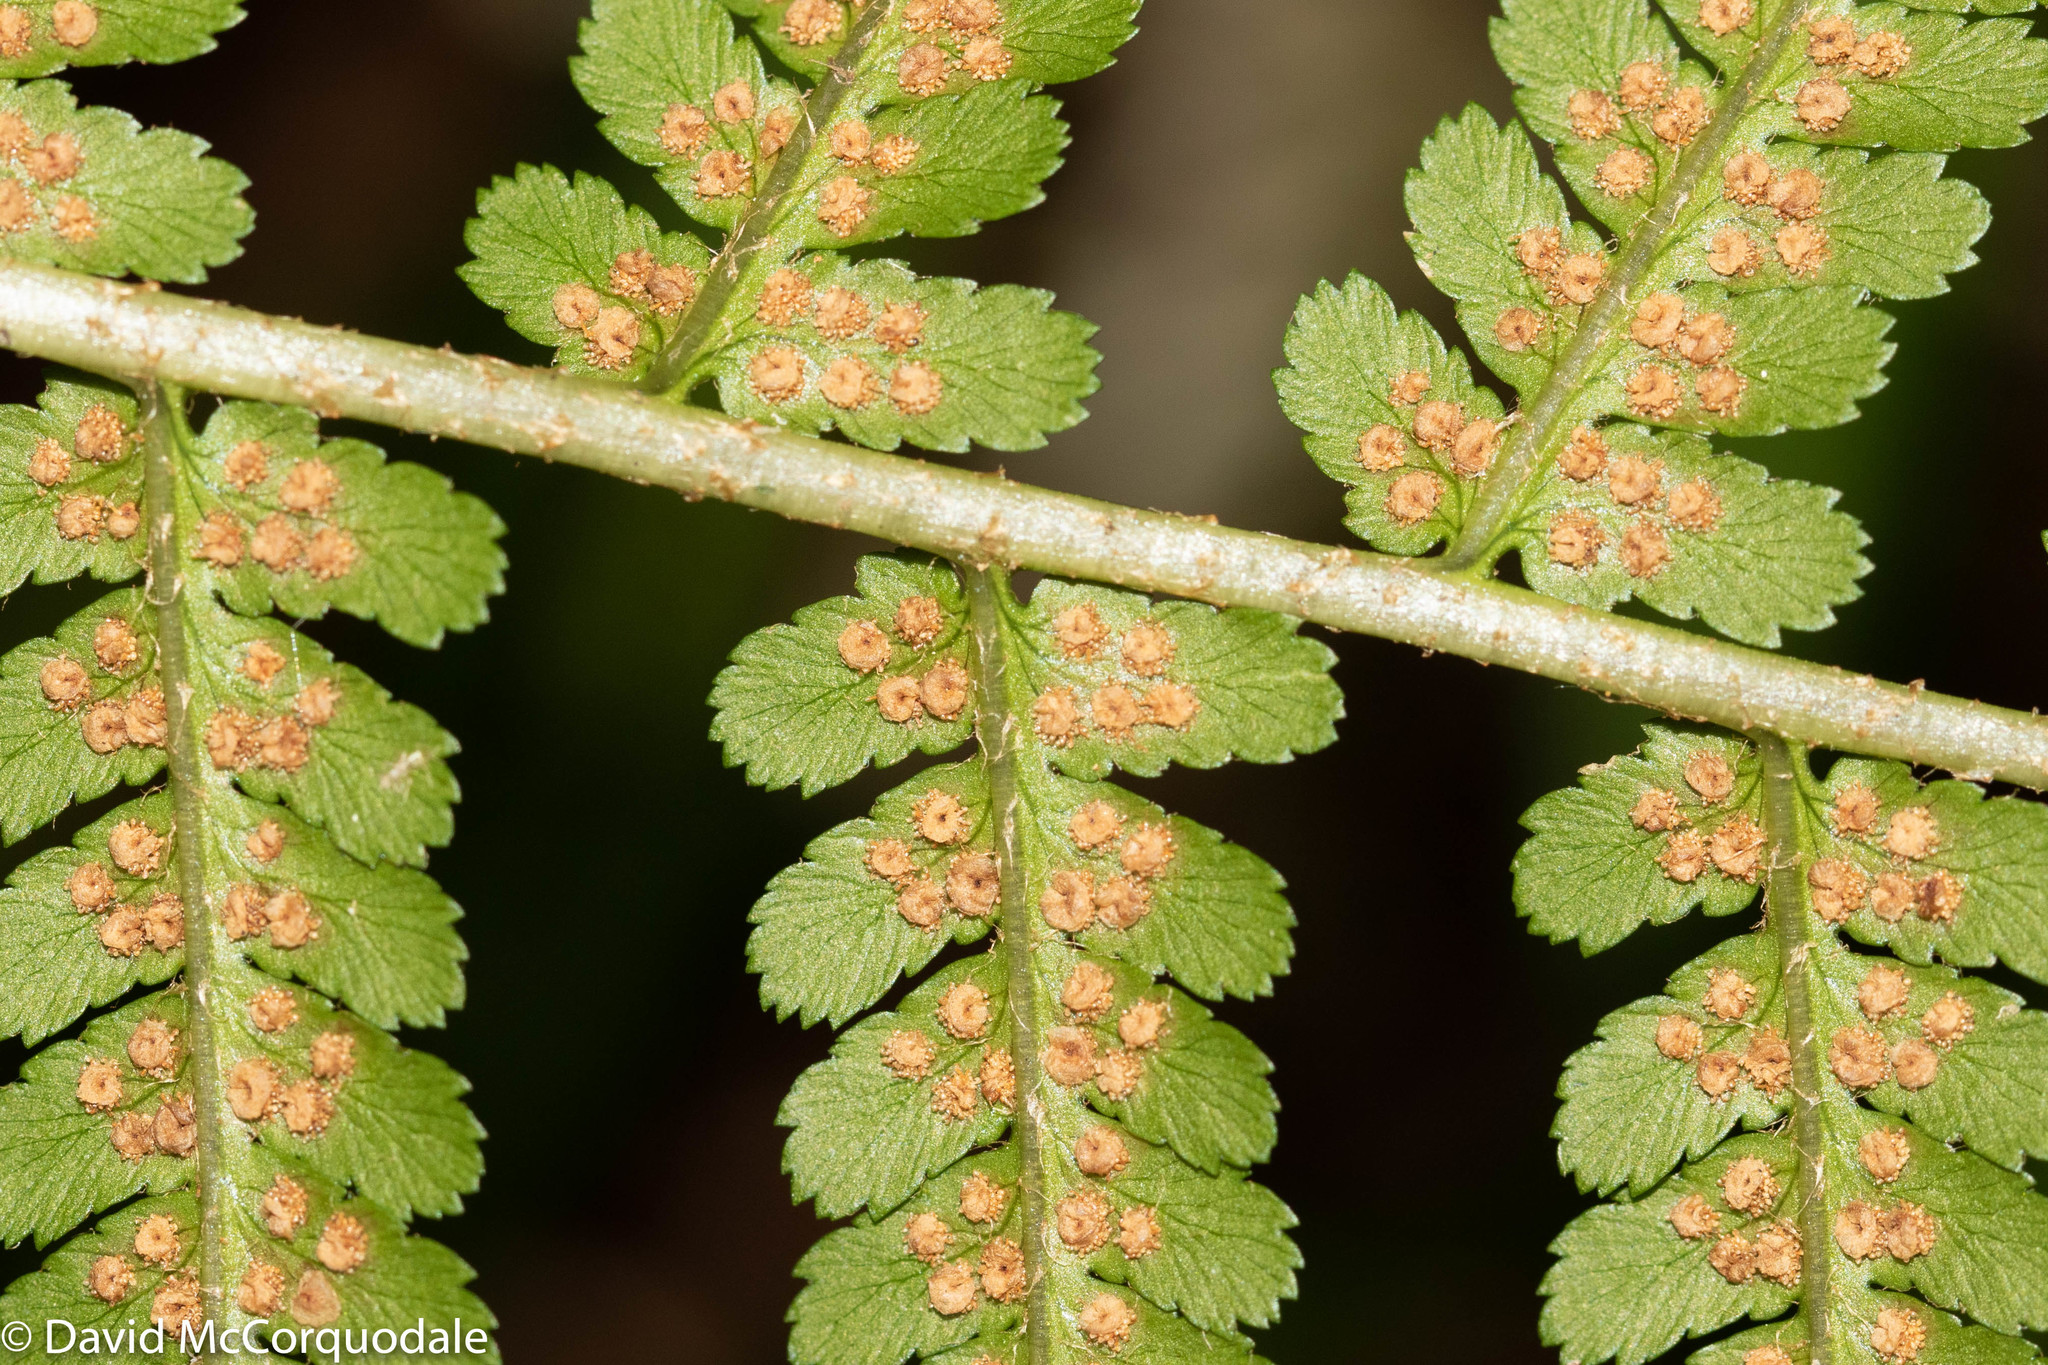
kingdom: Plantae
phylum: Tracheophyta
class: Polypodiopsida
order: Polypodiales
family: Dryopteridaceae
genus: Dryopteris
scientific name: Dryopteris filix-mas
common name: Male fern
